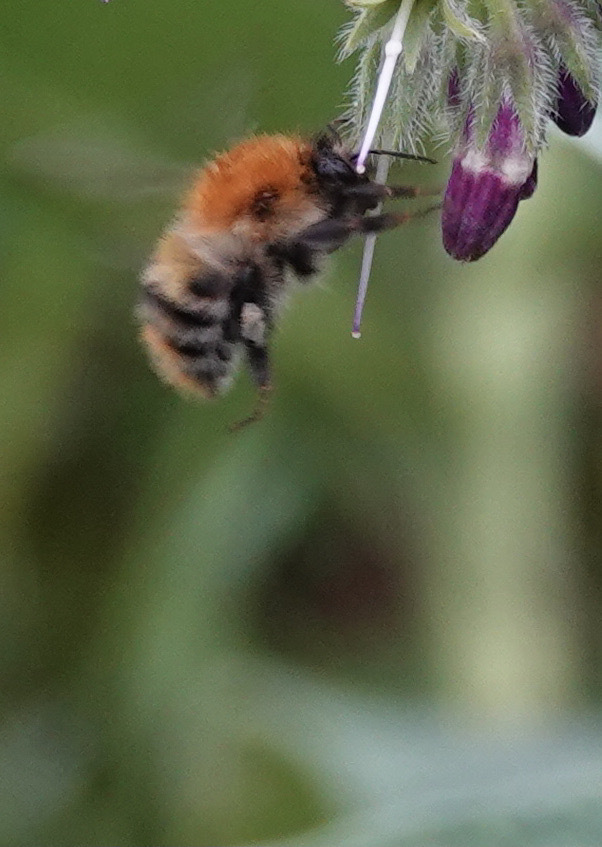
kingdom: Animalia
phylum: Arthropoda
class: Insecta
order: Hymenoptera
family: Apidae
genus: Bombus
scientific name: Bombus pascuorum
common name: Common carder bee
